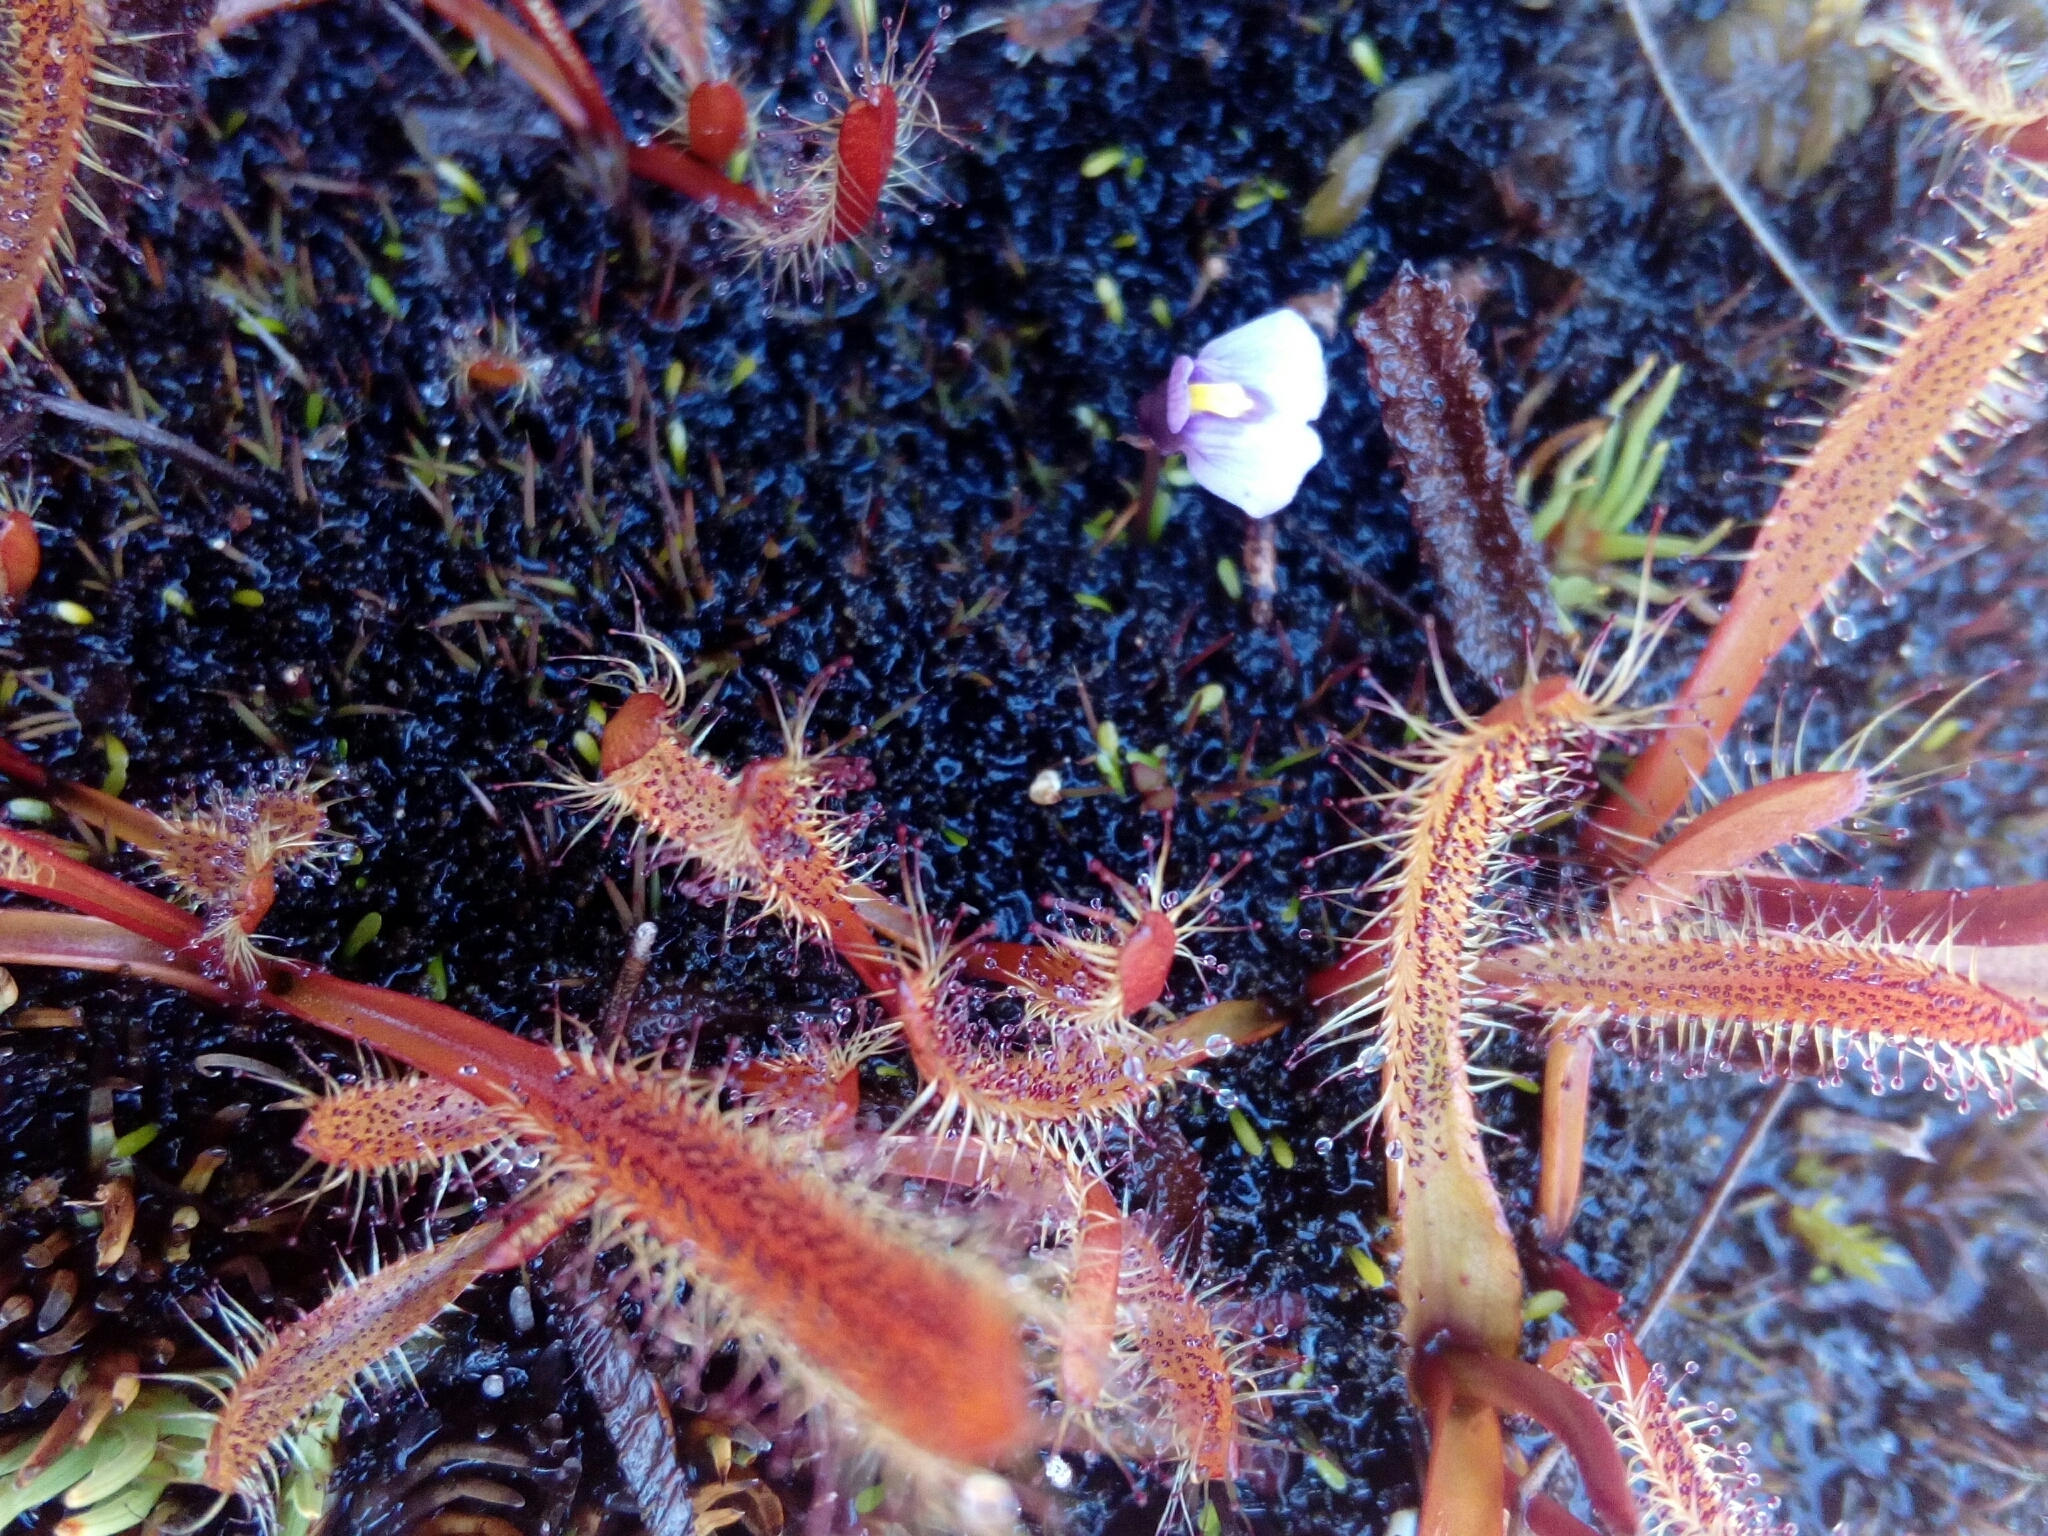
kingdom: Plantae
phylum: Tracheophyta
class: Magnoliopsida
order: Lamiales
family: Lentibulariaceae
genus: Utricularia
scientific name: Utricularia dichotoma
